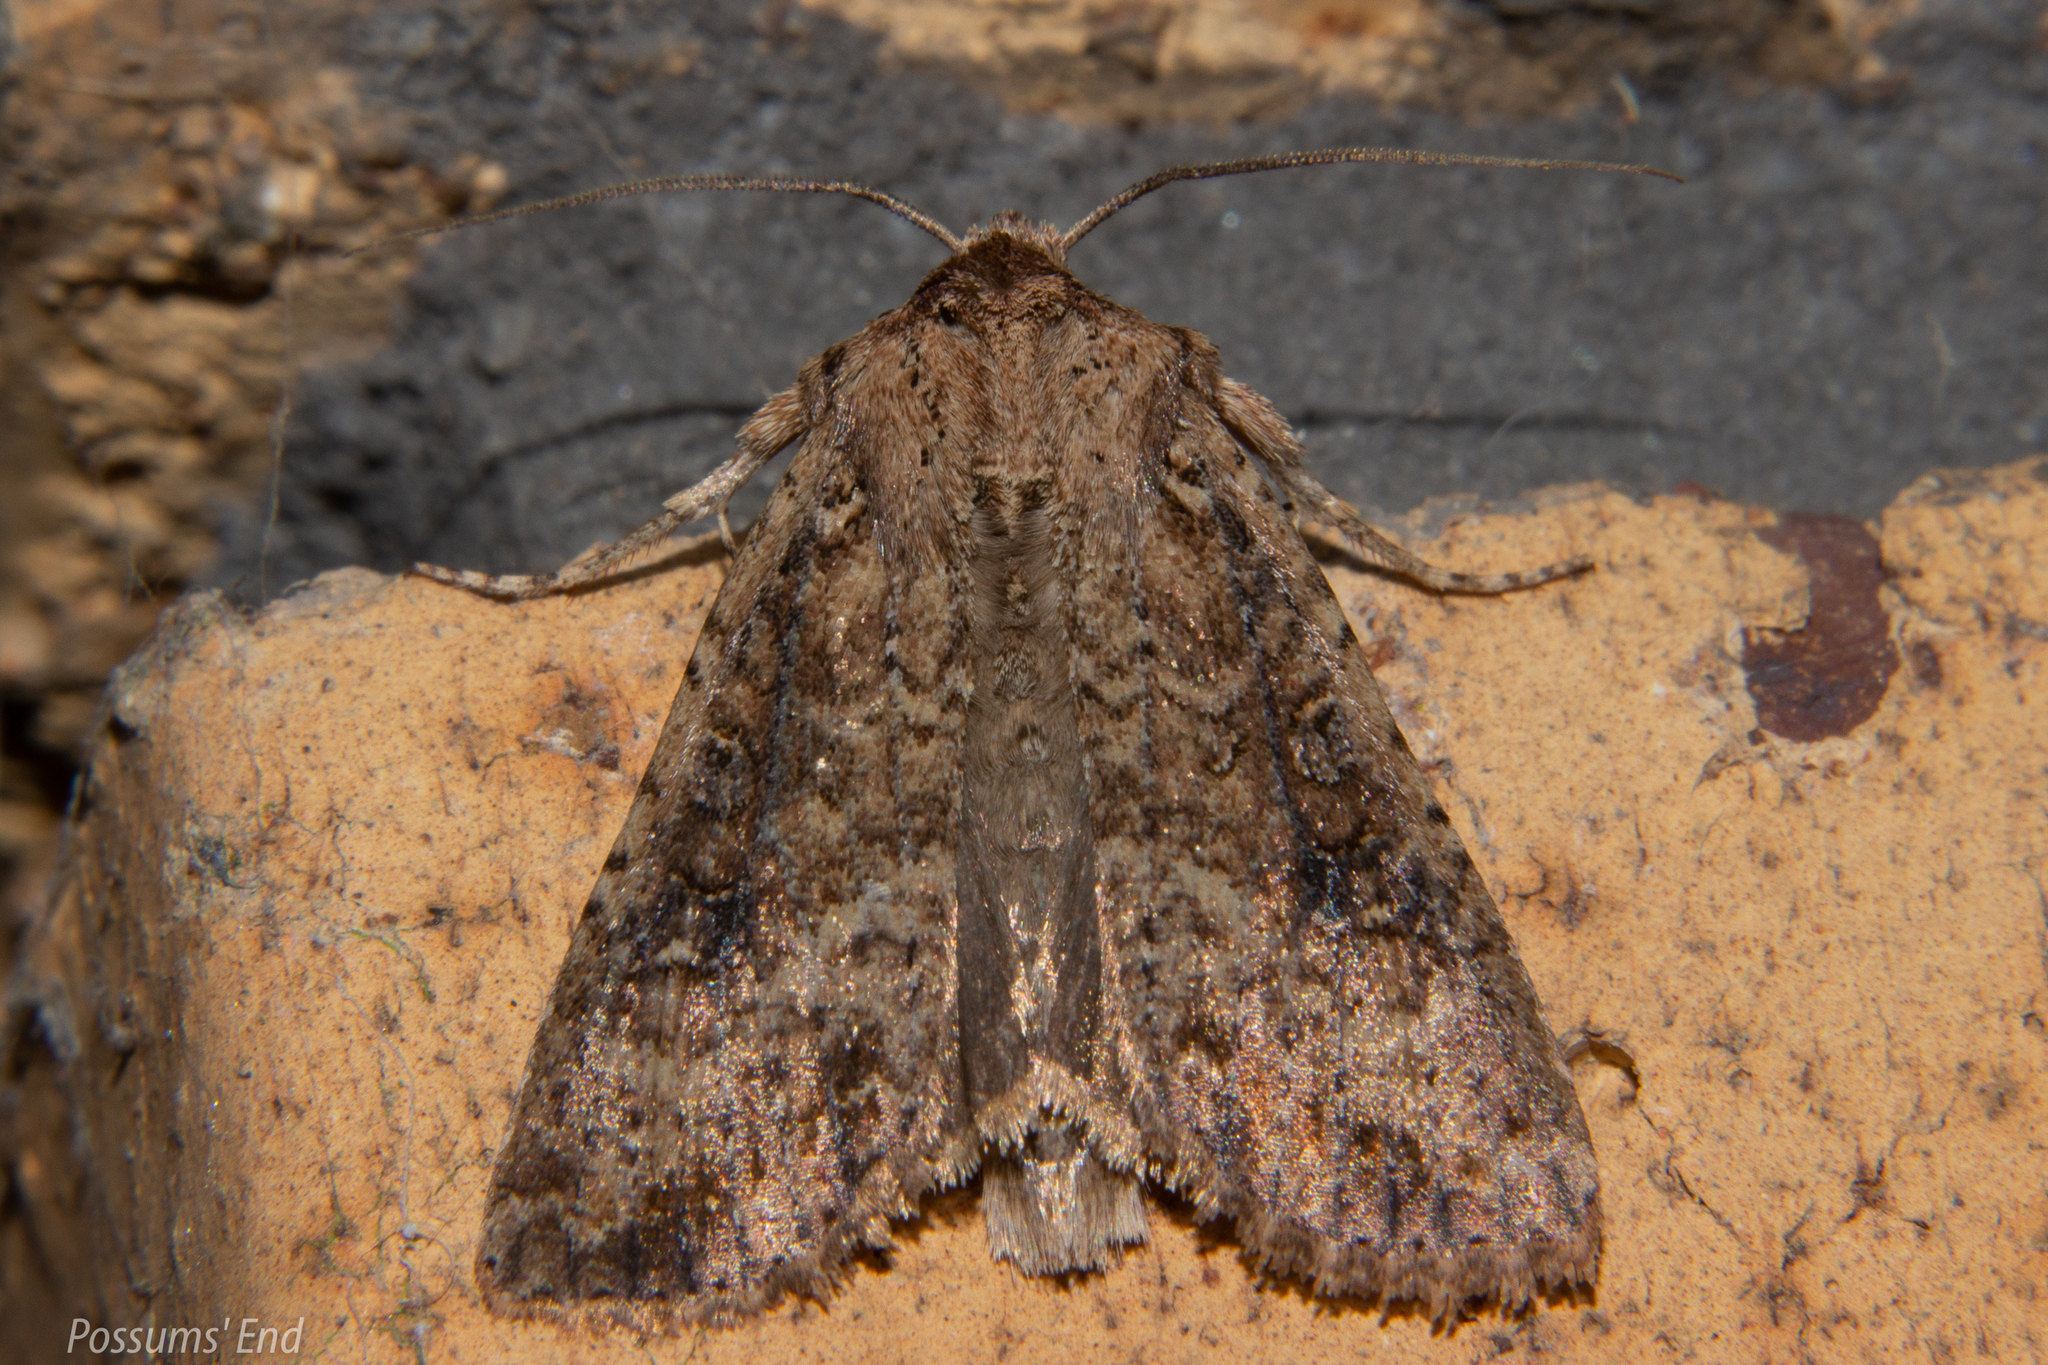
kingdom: Animalia
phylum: Arthropoda
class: Insecta
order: Lepidoptera
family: Noctuidae
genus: Ichneutica
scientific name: Ichneutica morosa
